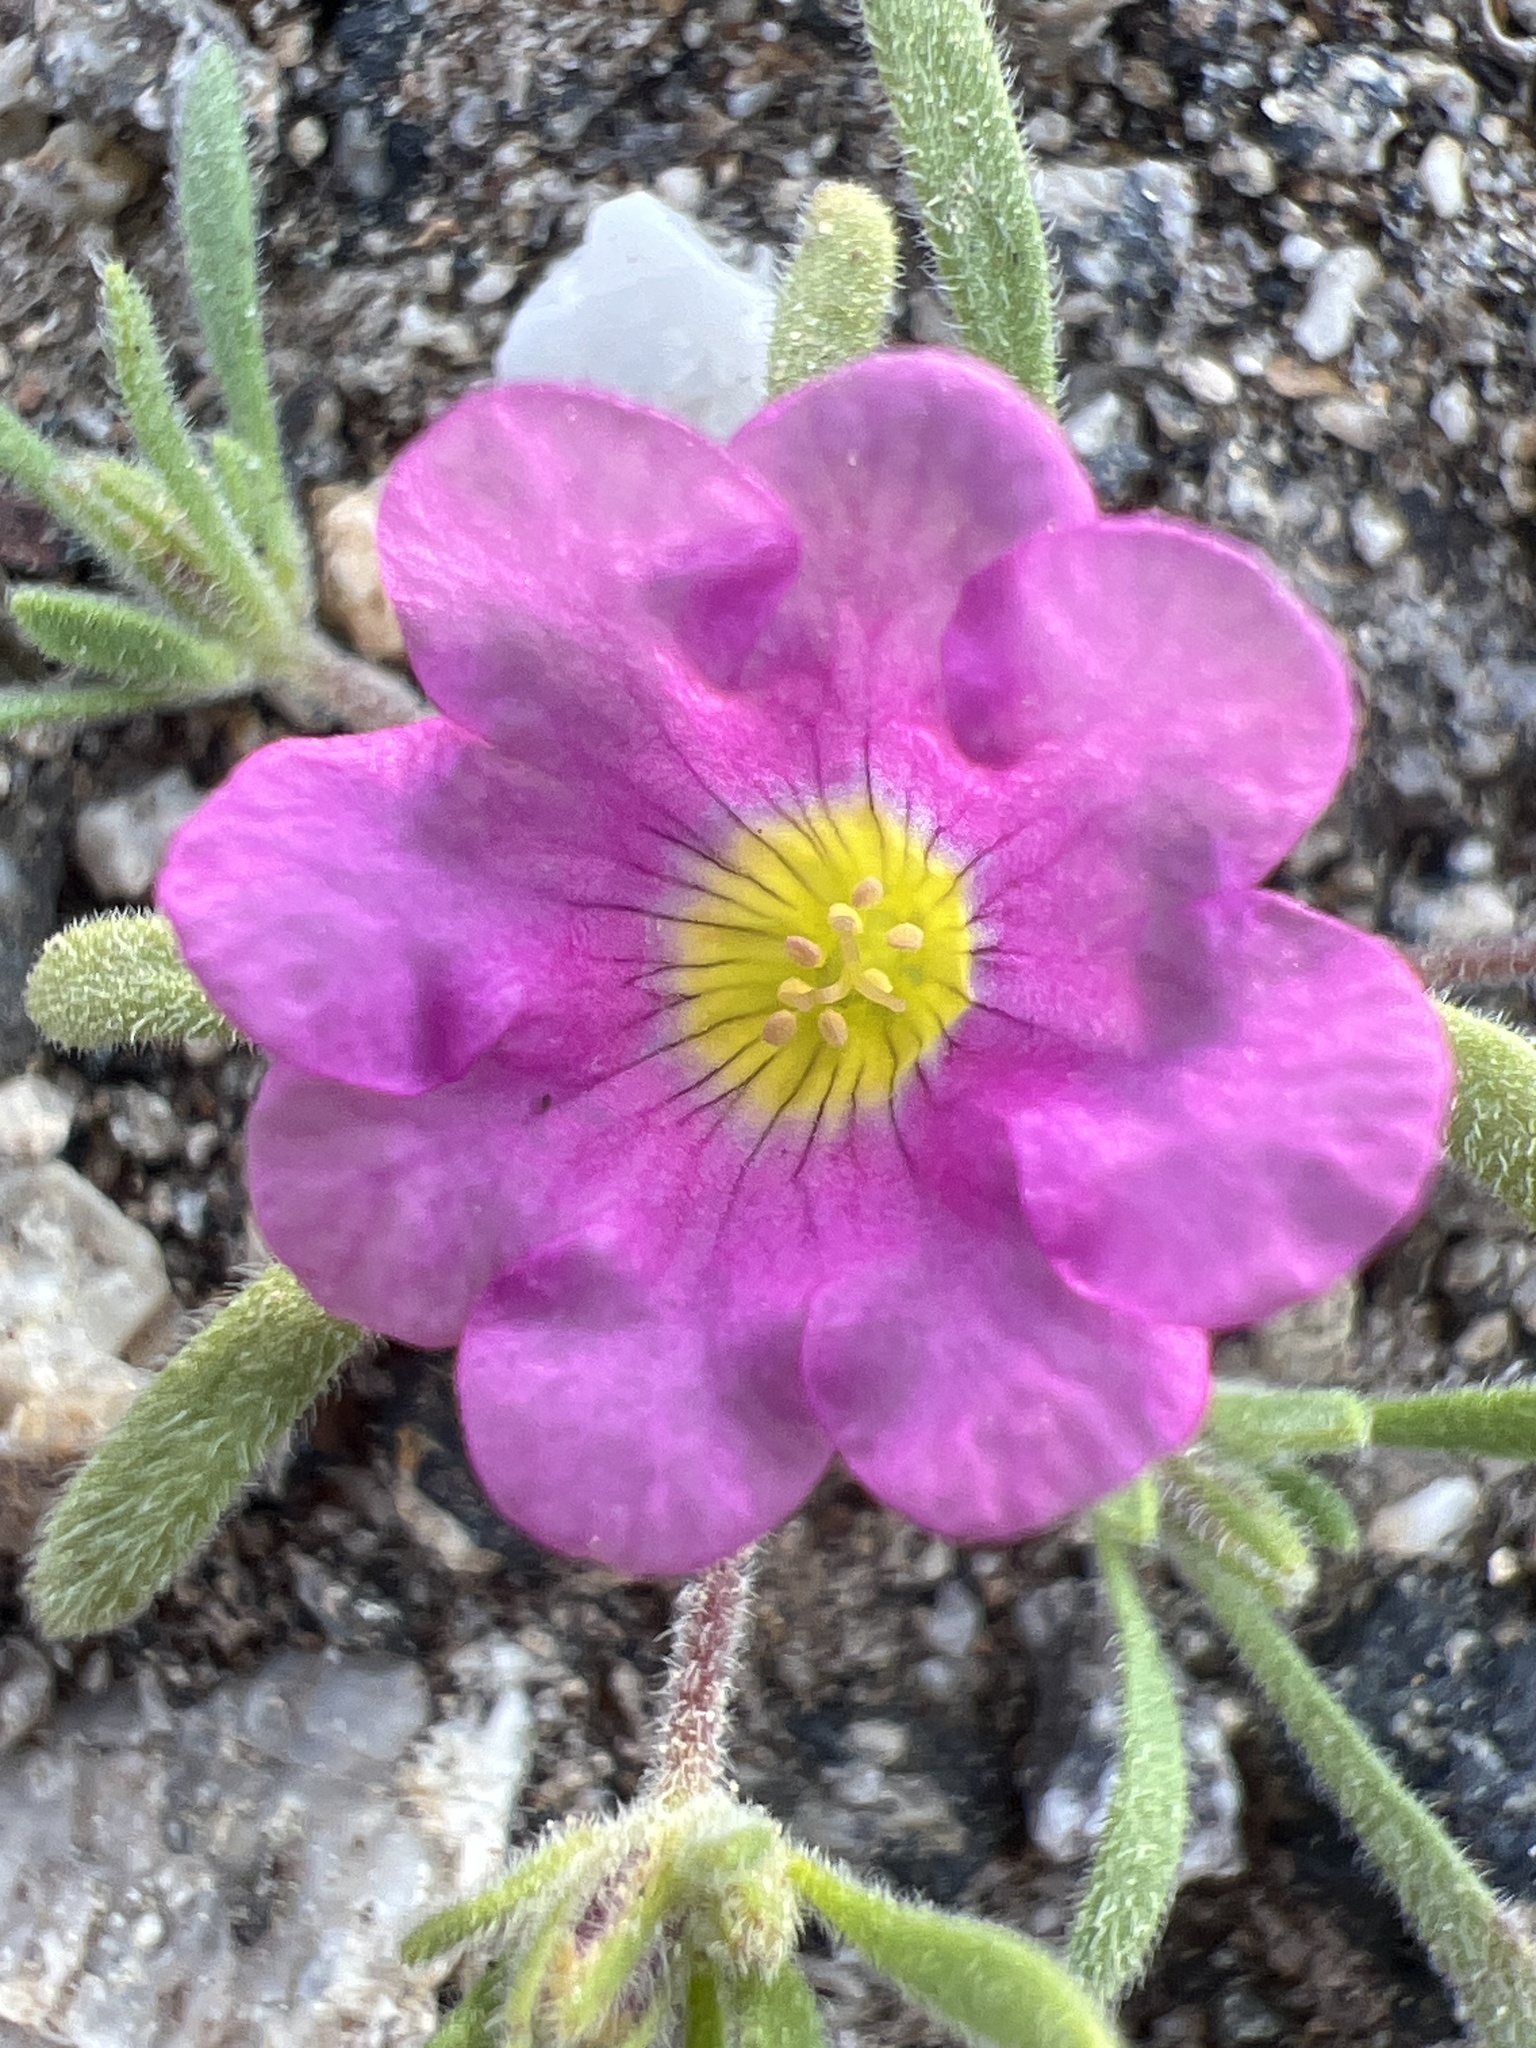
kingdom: Plantae
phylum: Tracheophyta
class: Magnoliopsida
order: Boraginales
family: Namaceae
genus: Nama
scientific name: Nama demissa
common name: Leafy nama
